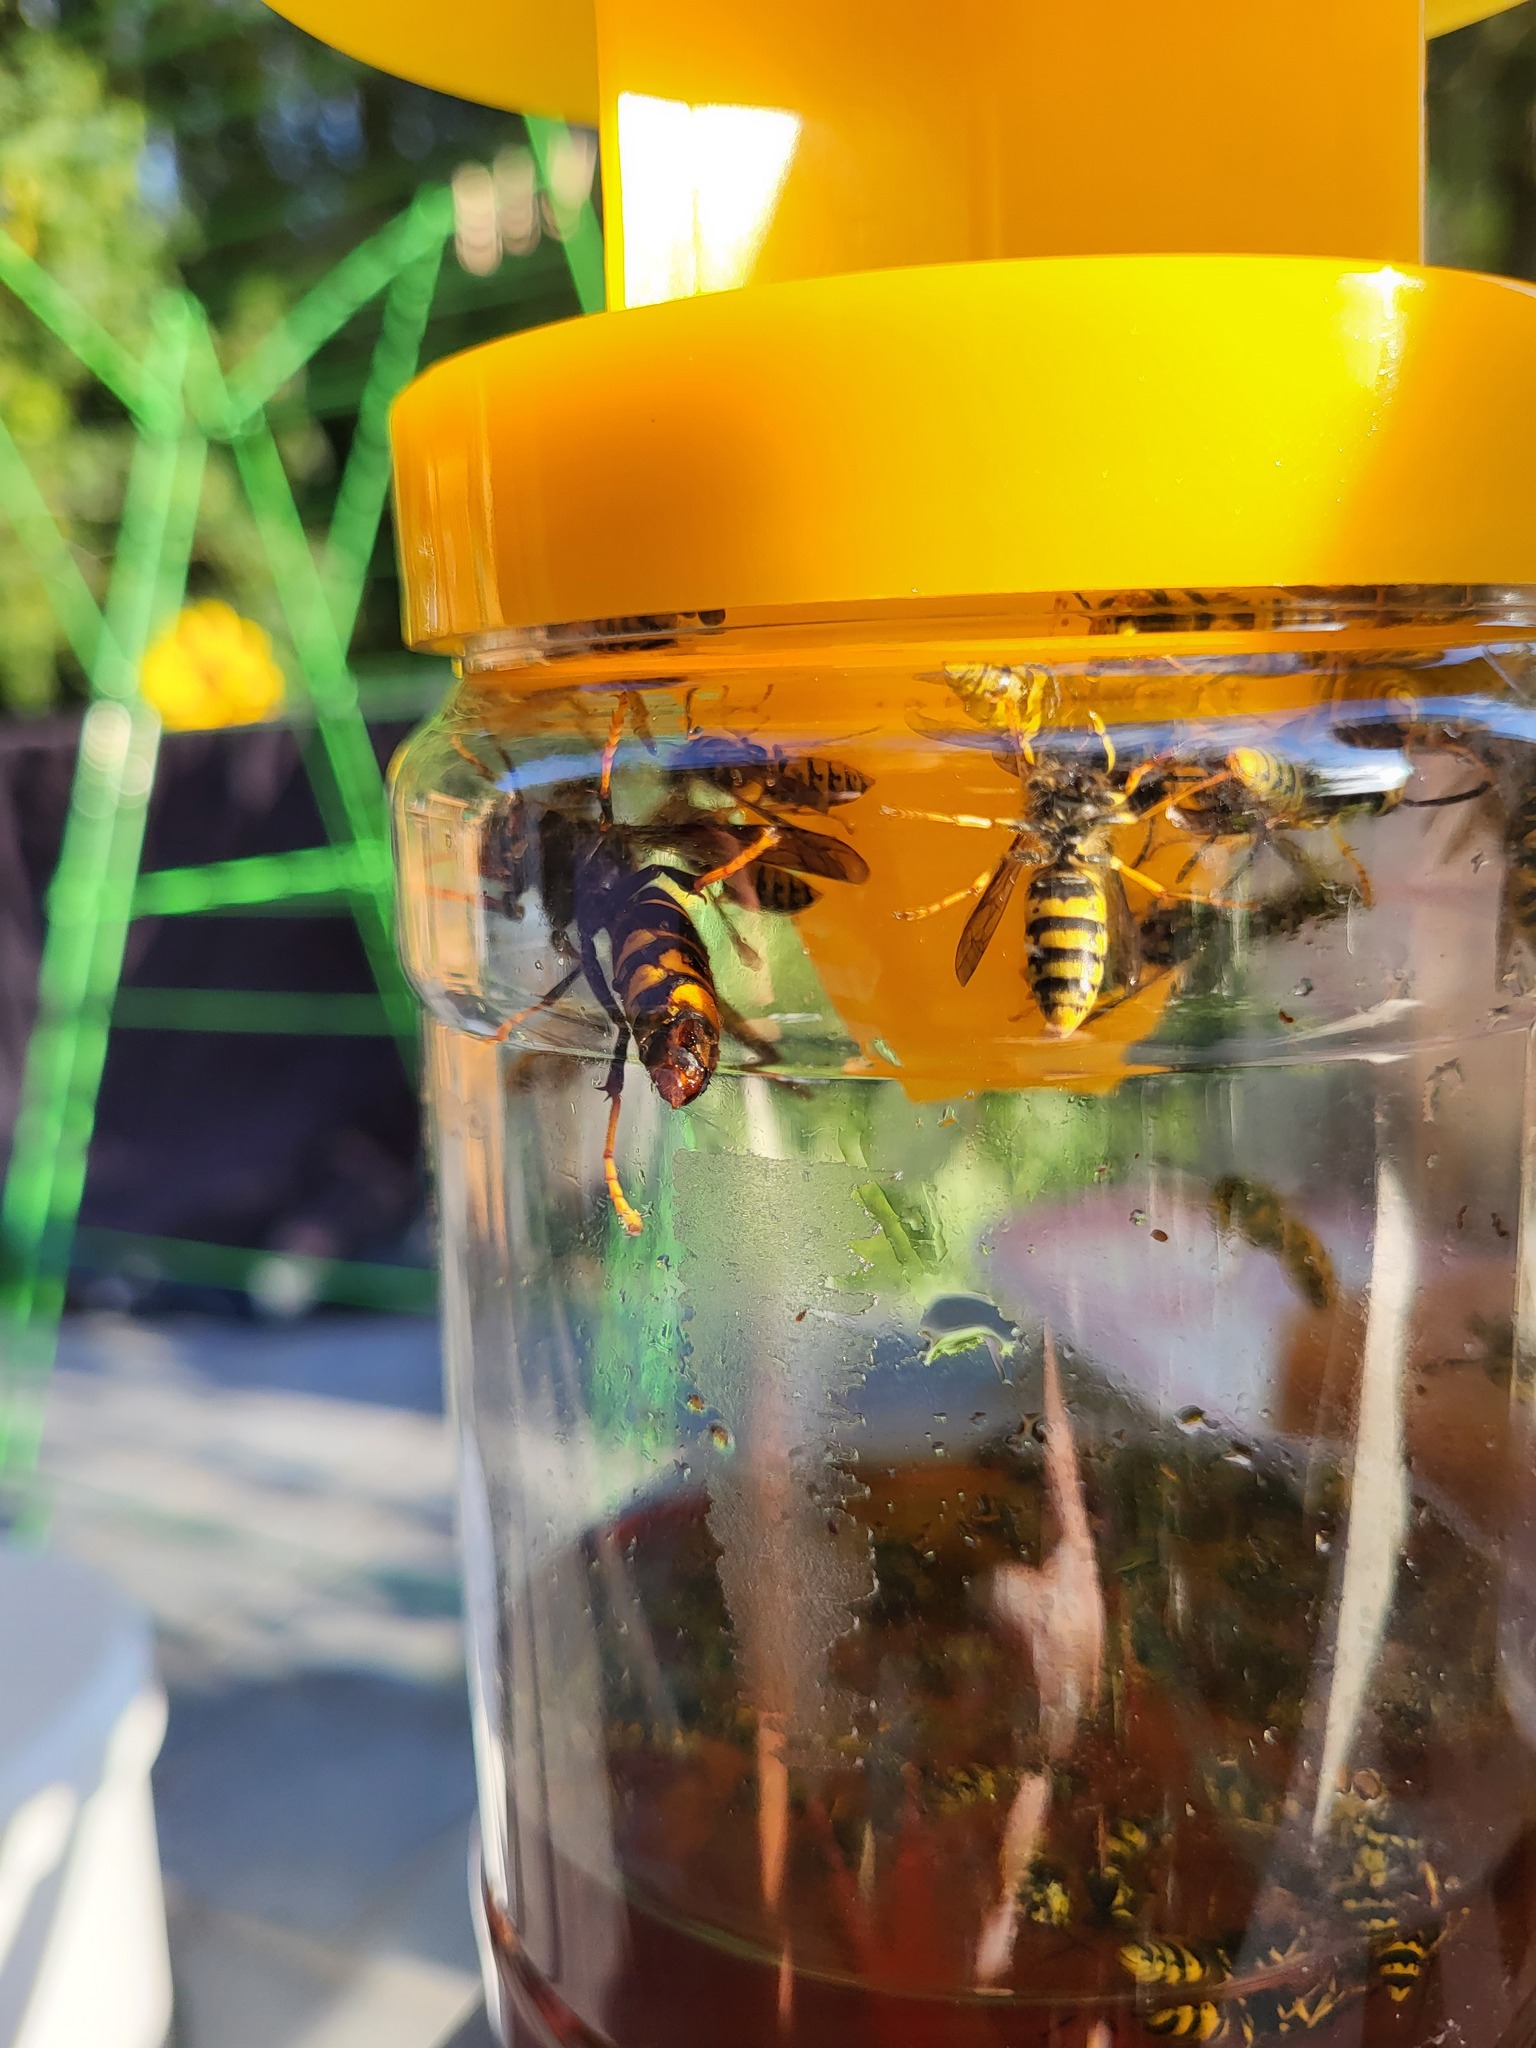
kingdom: Animalia
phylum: Arthropoda
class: Insecta
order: Hymenoptera
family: Vespidae
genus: Vespa
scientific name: Vespa velutina
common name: Asian hornet
